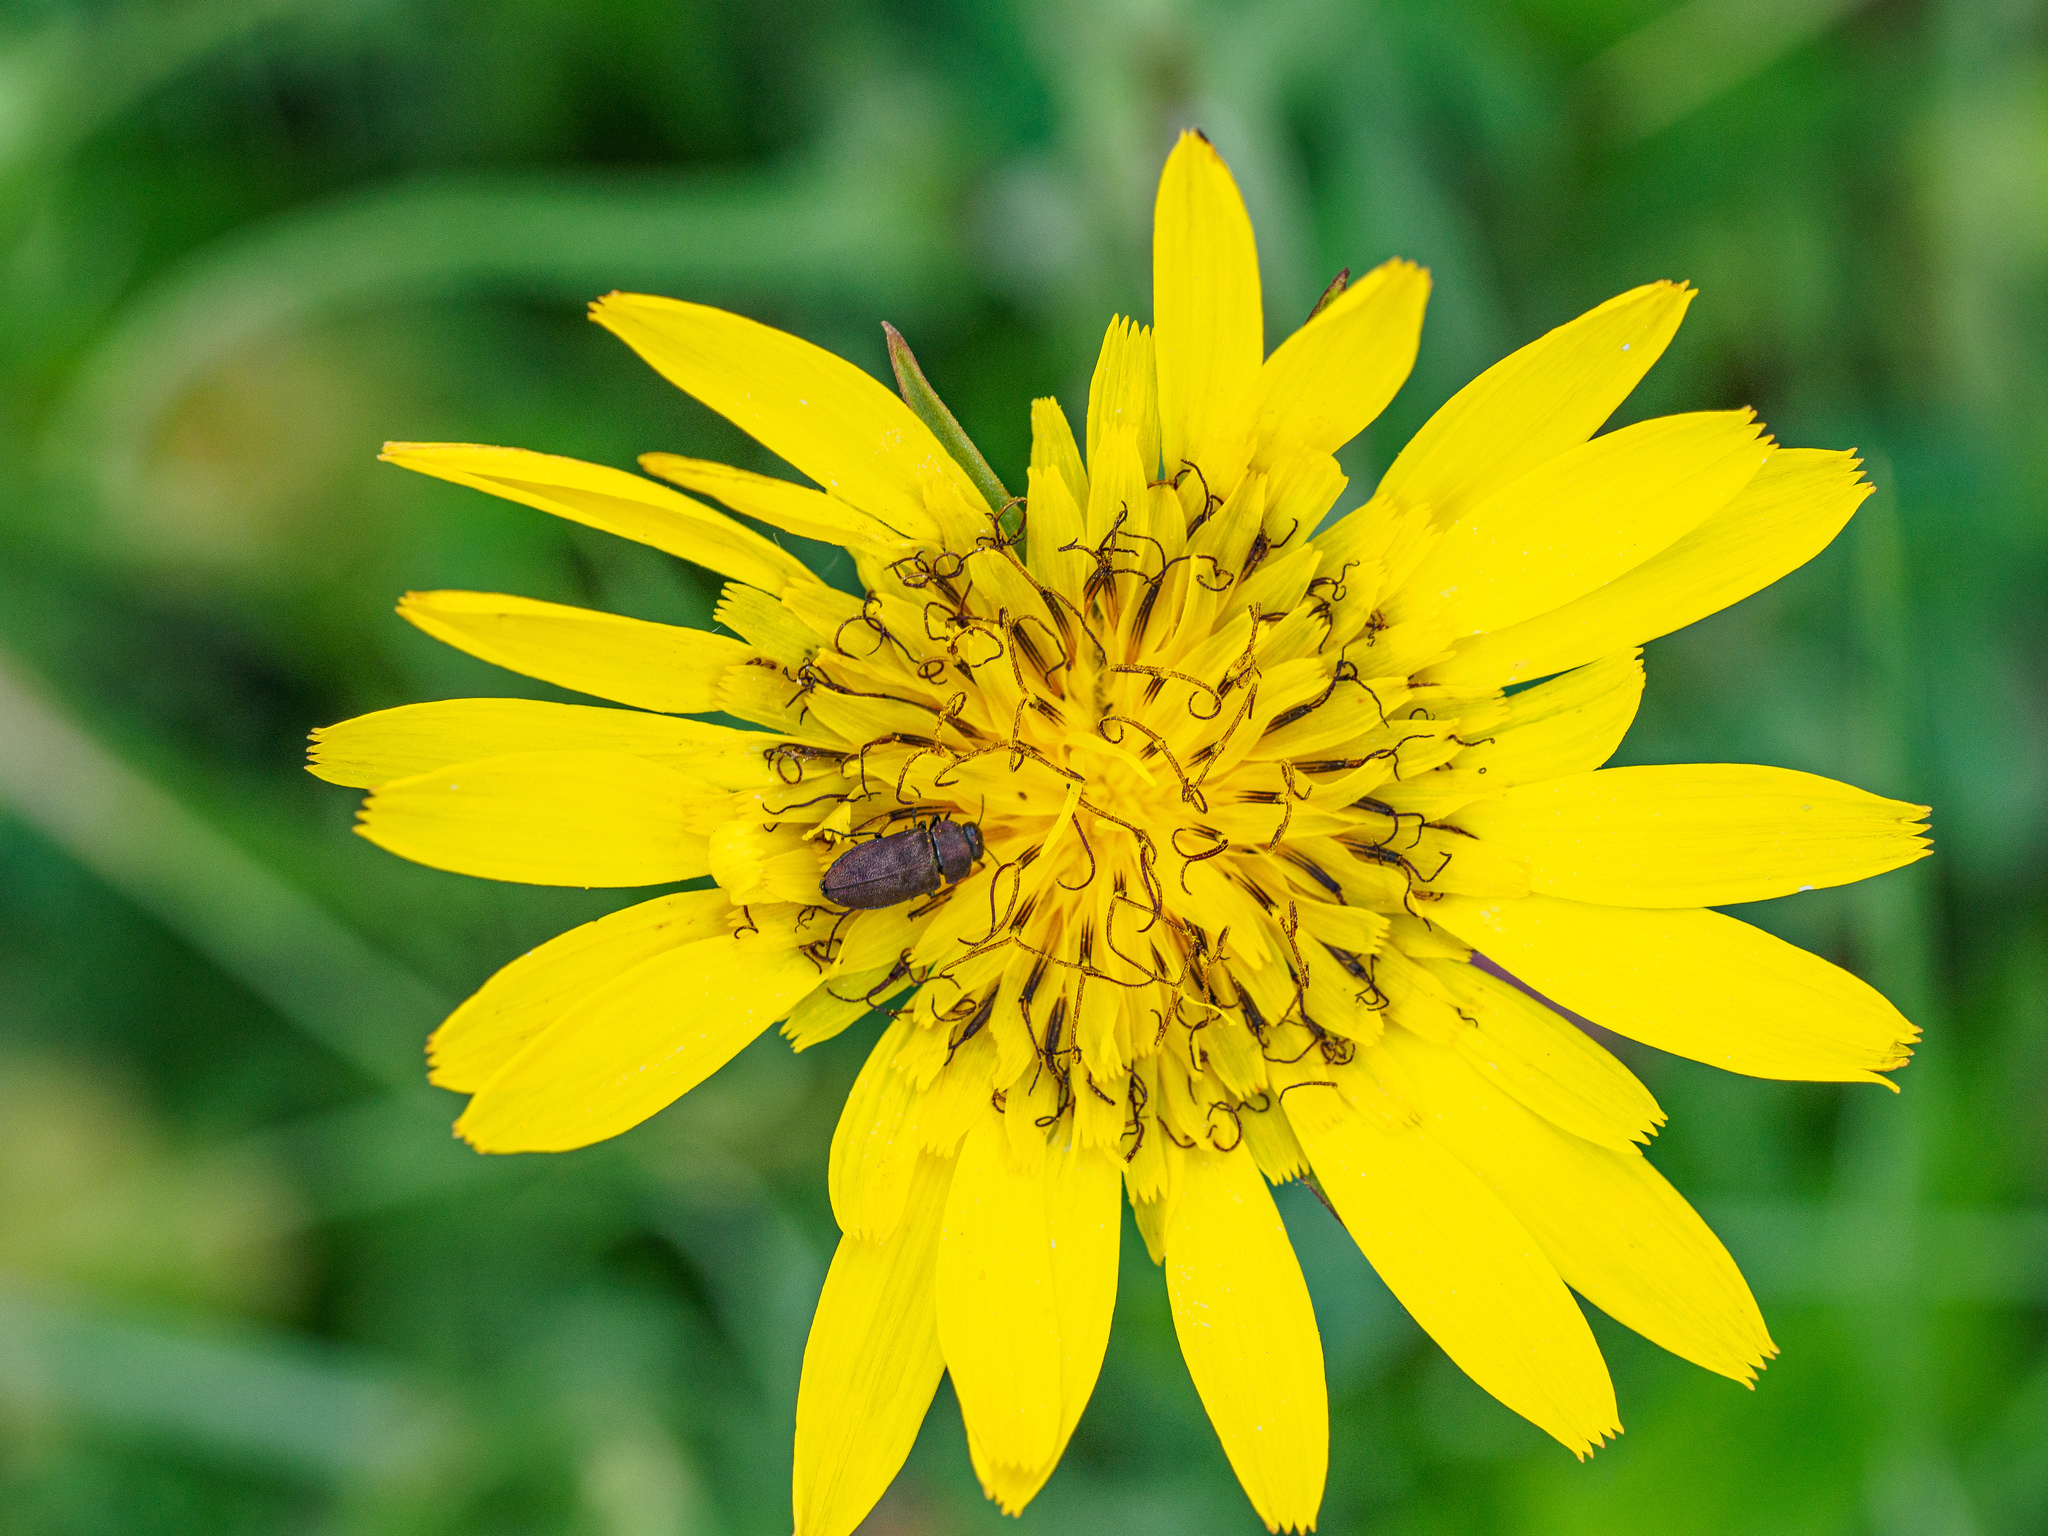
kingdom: Animalia
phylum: Arthropoda
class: Insecta
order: Coleoptera
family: Buprestidae
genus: Anthaxia
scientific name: Anthaxia helvetica
